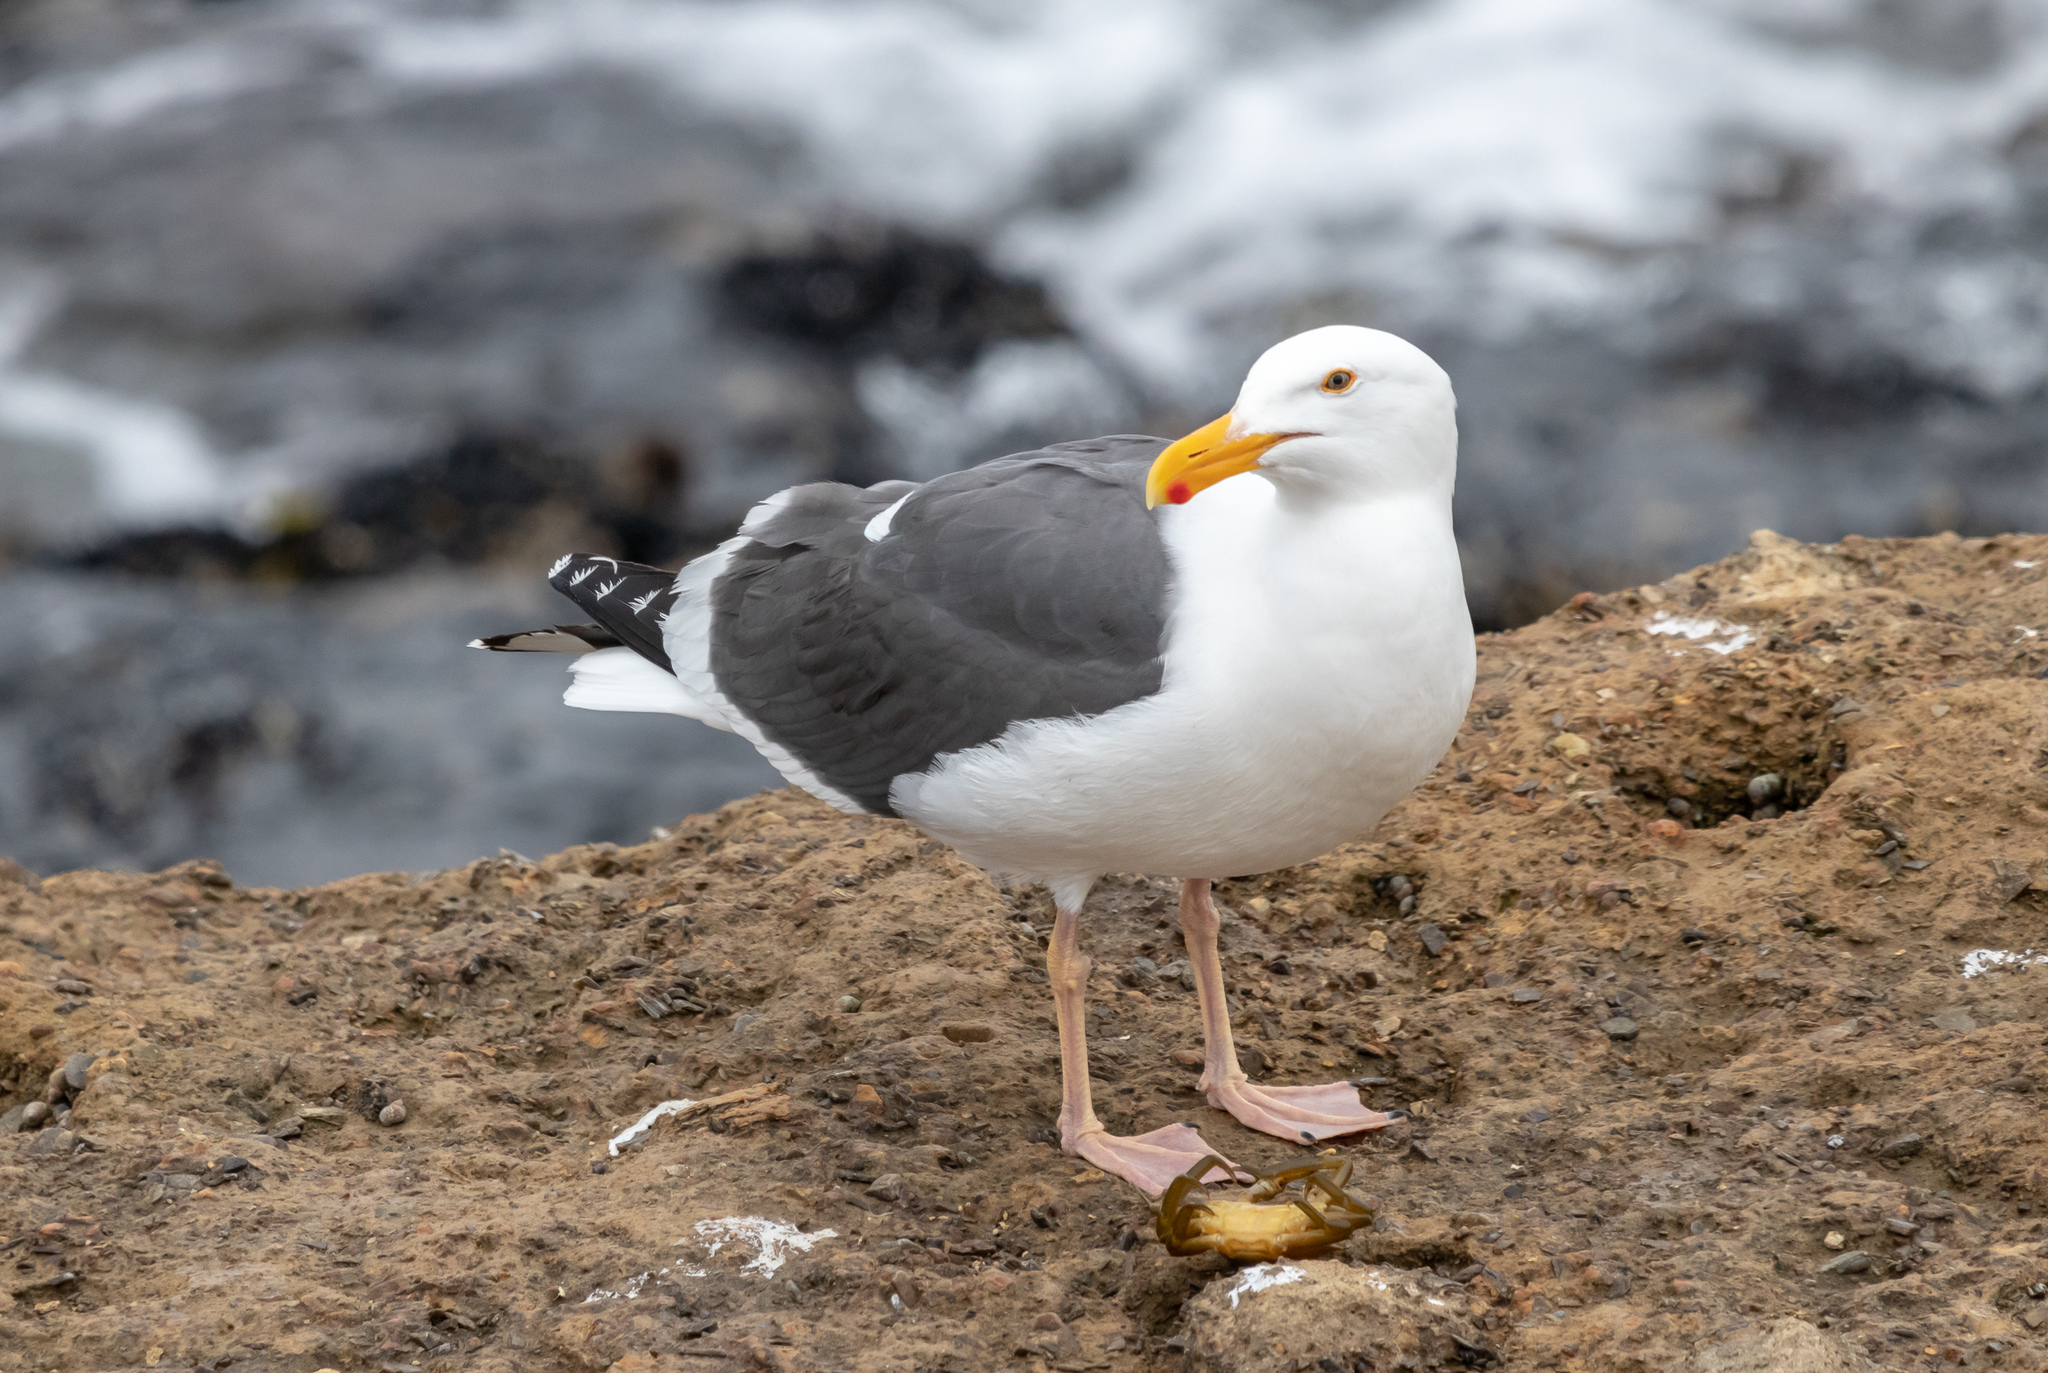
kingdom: Animalia
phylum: Chordata
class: Aves
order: Charadriiformes
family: Laridae
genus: Larus
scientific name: Larus occidentalis
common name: Western gull
